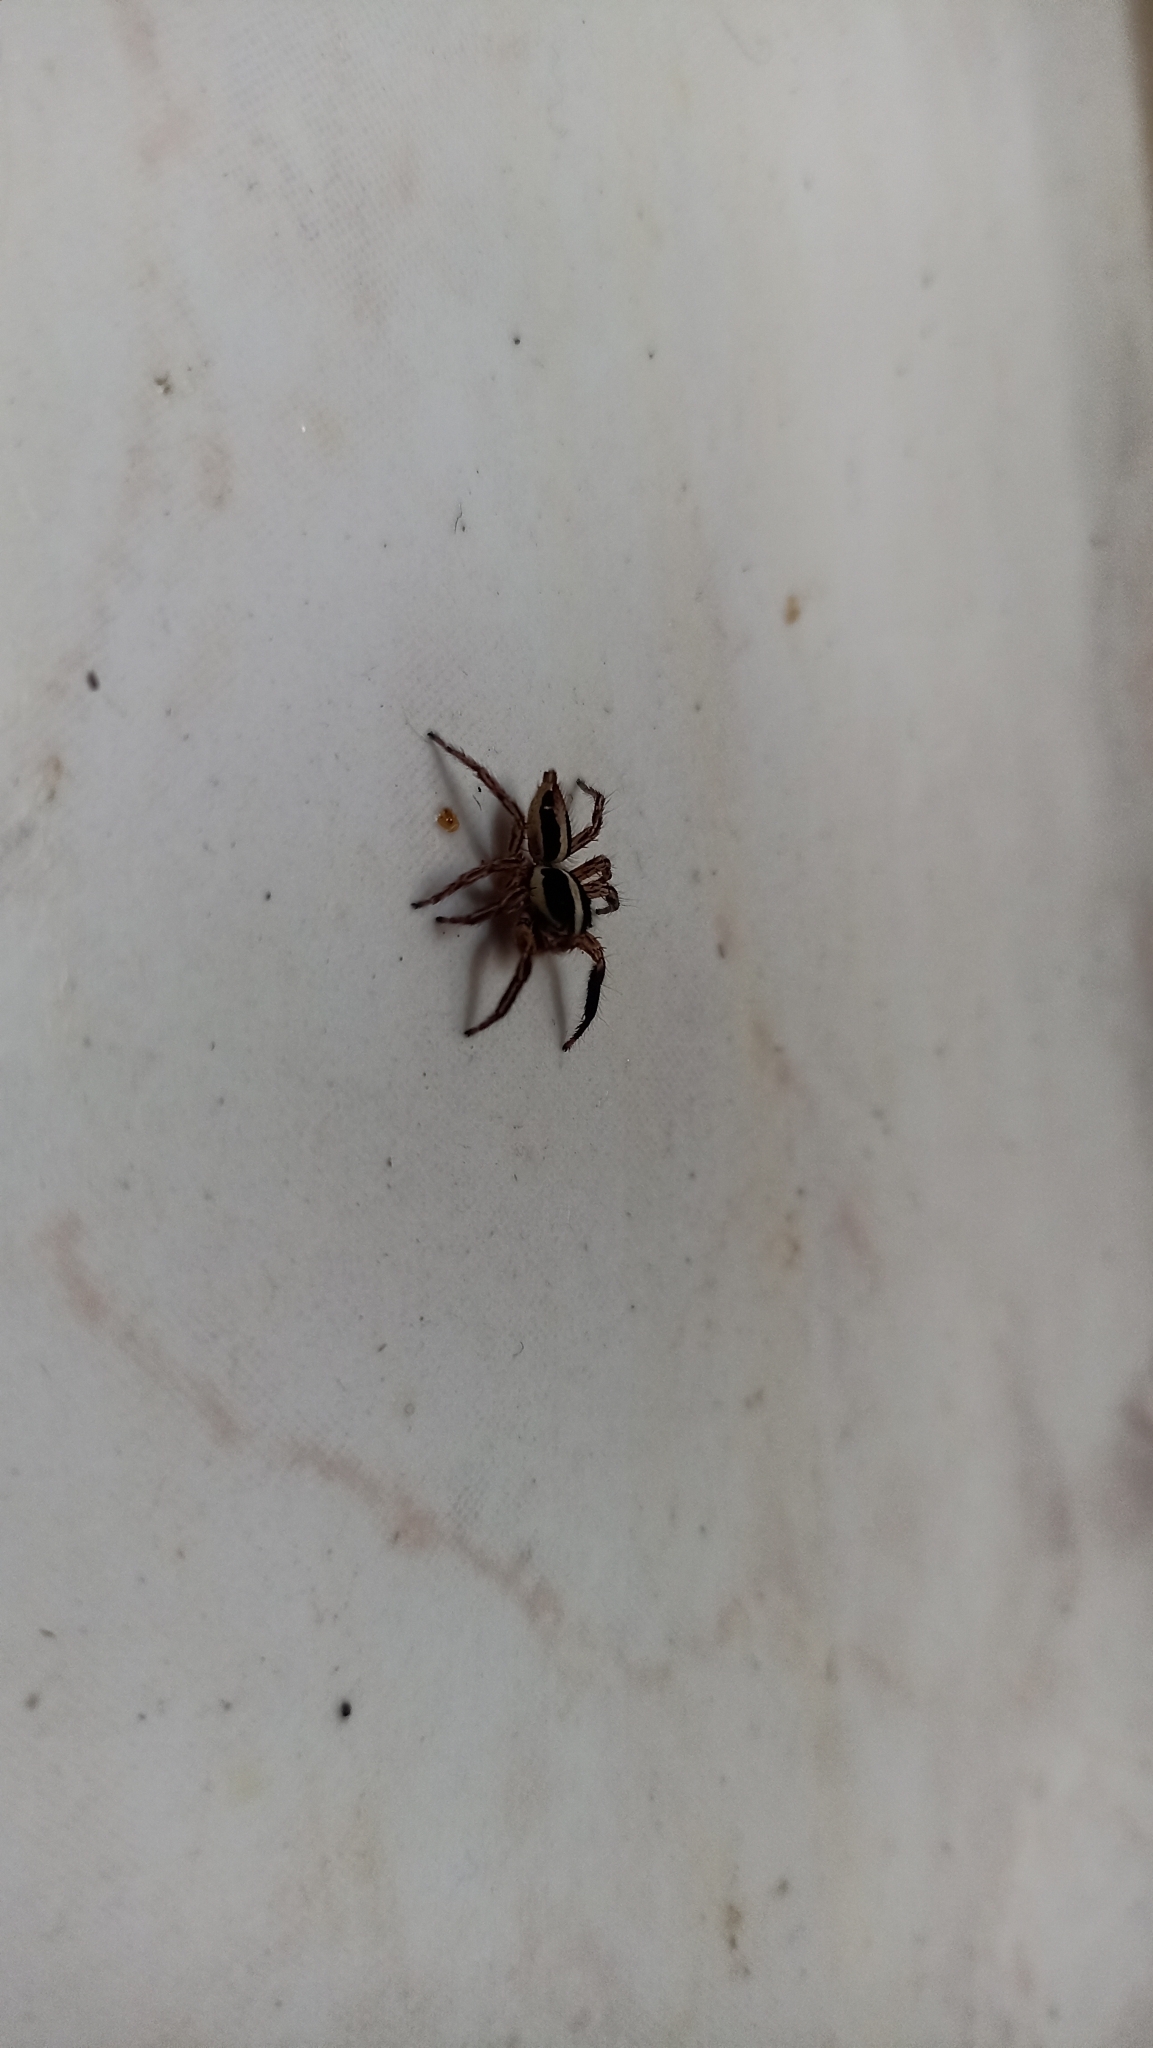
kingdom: Animalia
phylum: Arthropoda
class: Arachnida
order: Araneae
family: Salticidae
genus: Plexippus
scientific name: Plexippus paykulli
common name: Pantropical jumper
